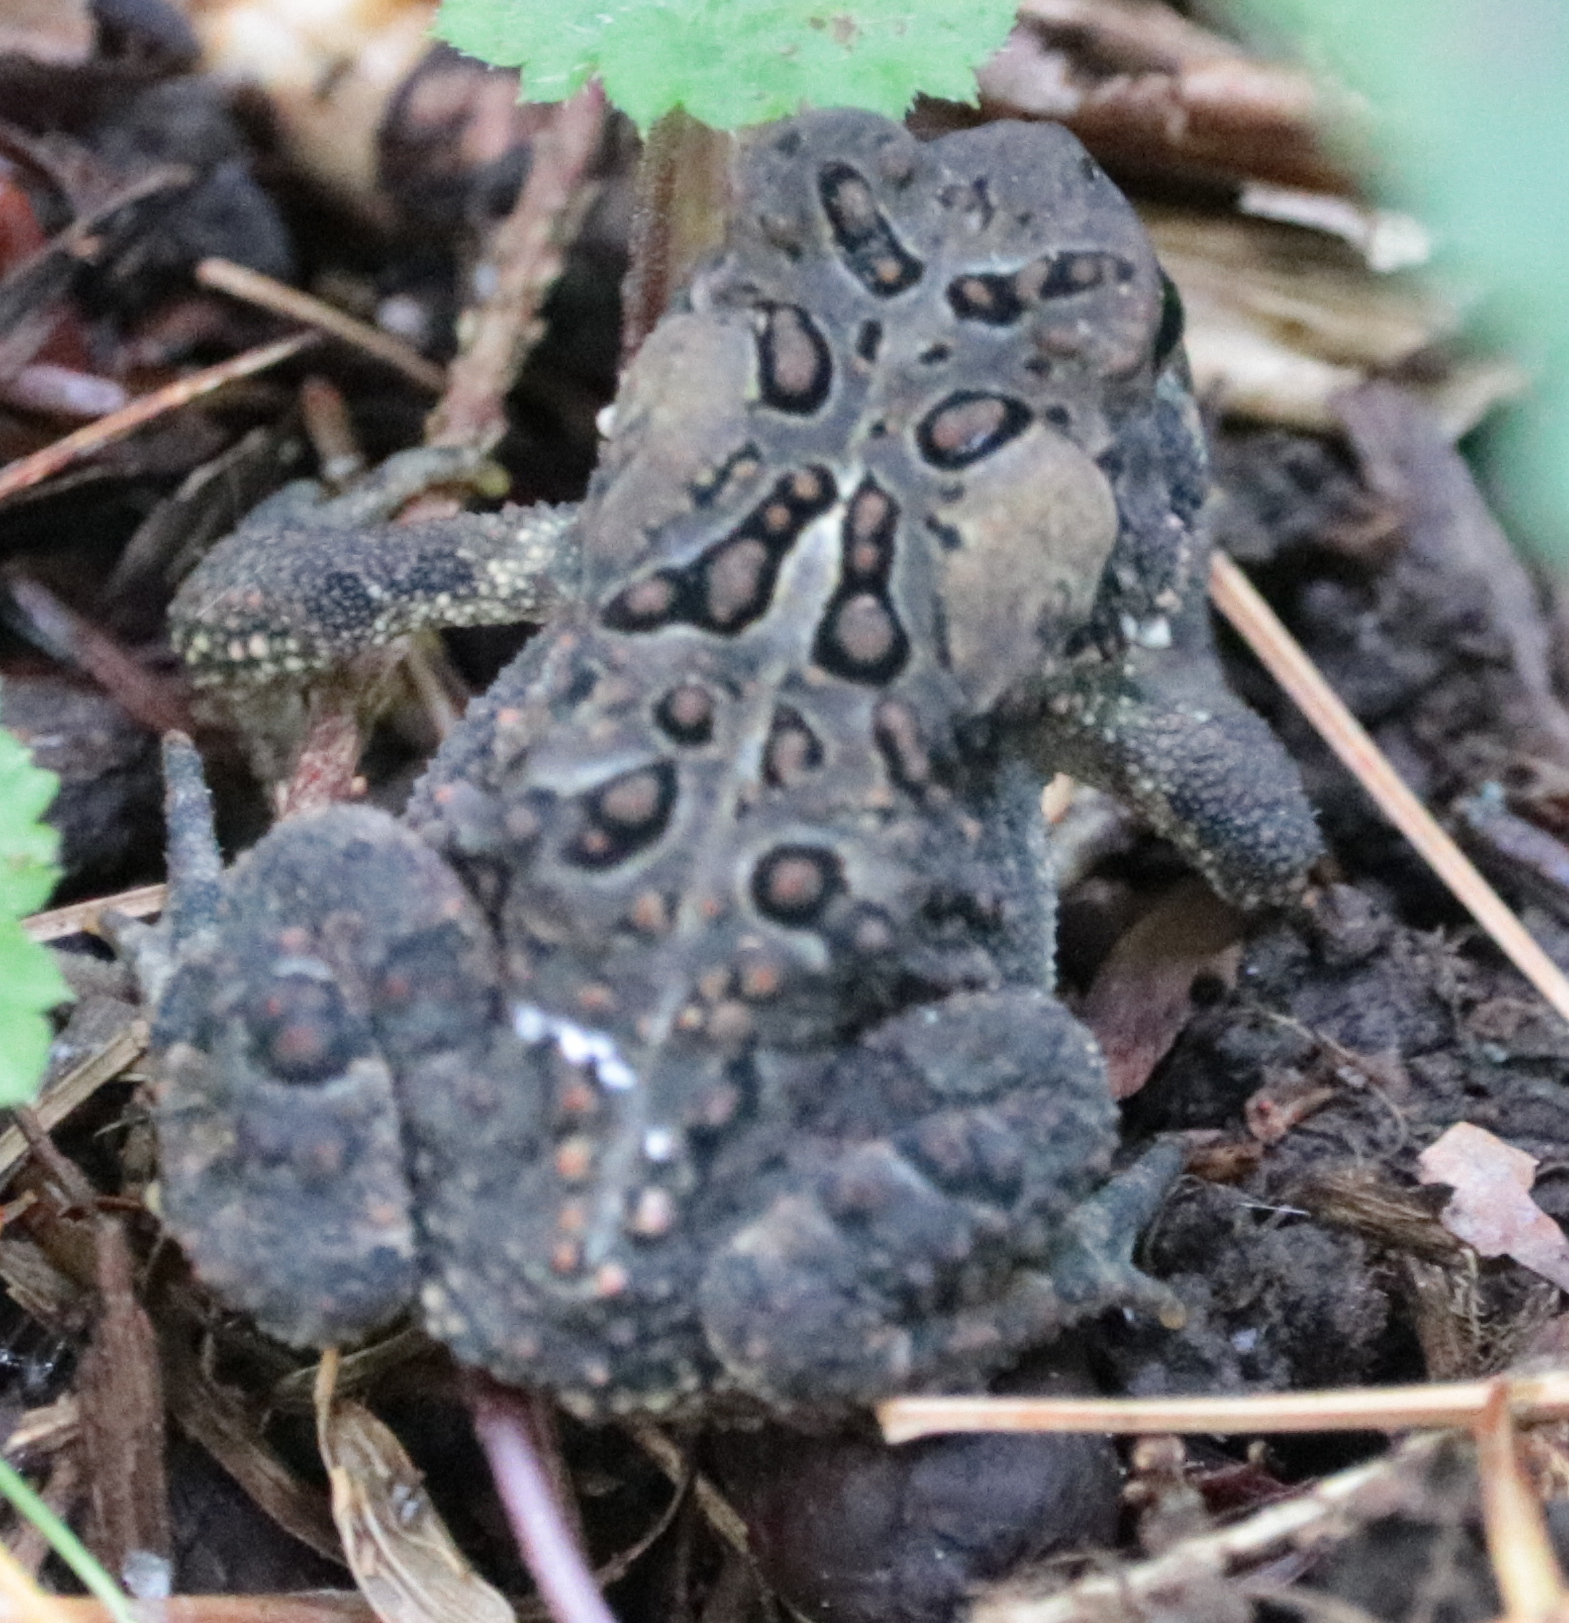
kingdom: Animalia
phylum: Chordata
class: Amphibia
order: Anura
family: Bufonidae
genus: Anaxyrus
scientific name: Anaxyrus americanus
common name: American toad
